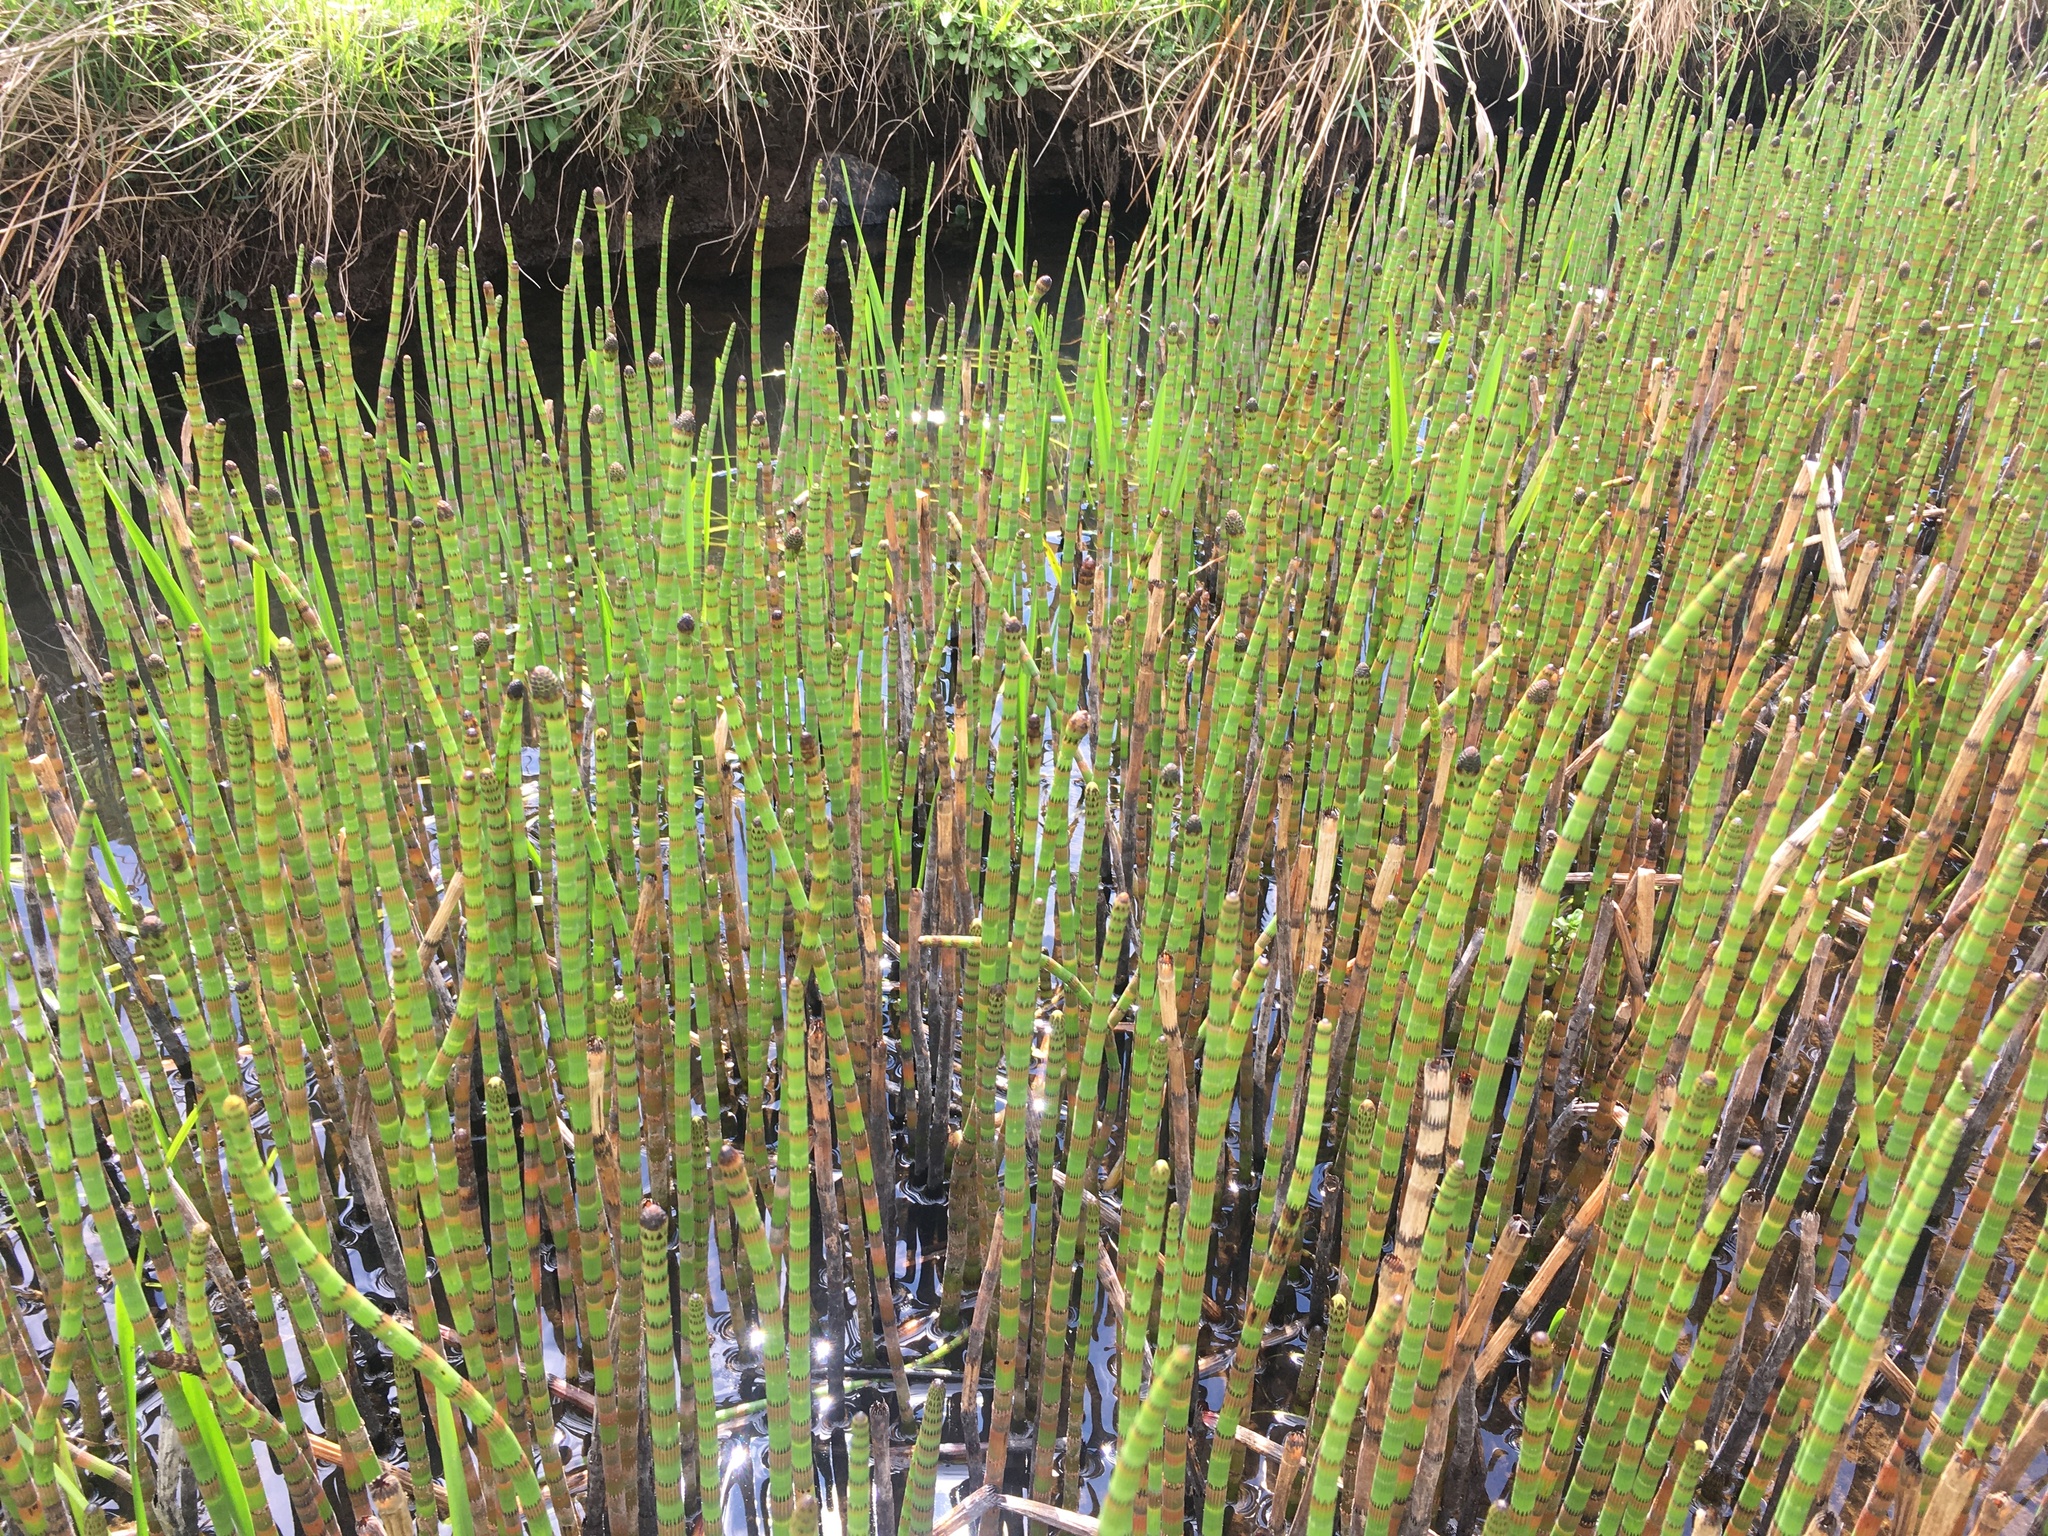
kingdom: Plantae
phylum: Tracheophyta
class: Polypodiopsida
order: Equisetales
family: Equisetaceae
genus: Equisetum
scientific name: Equisetum fluviatile
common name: Water horsetail
